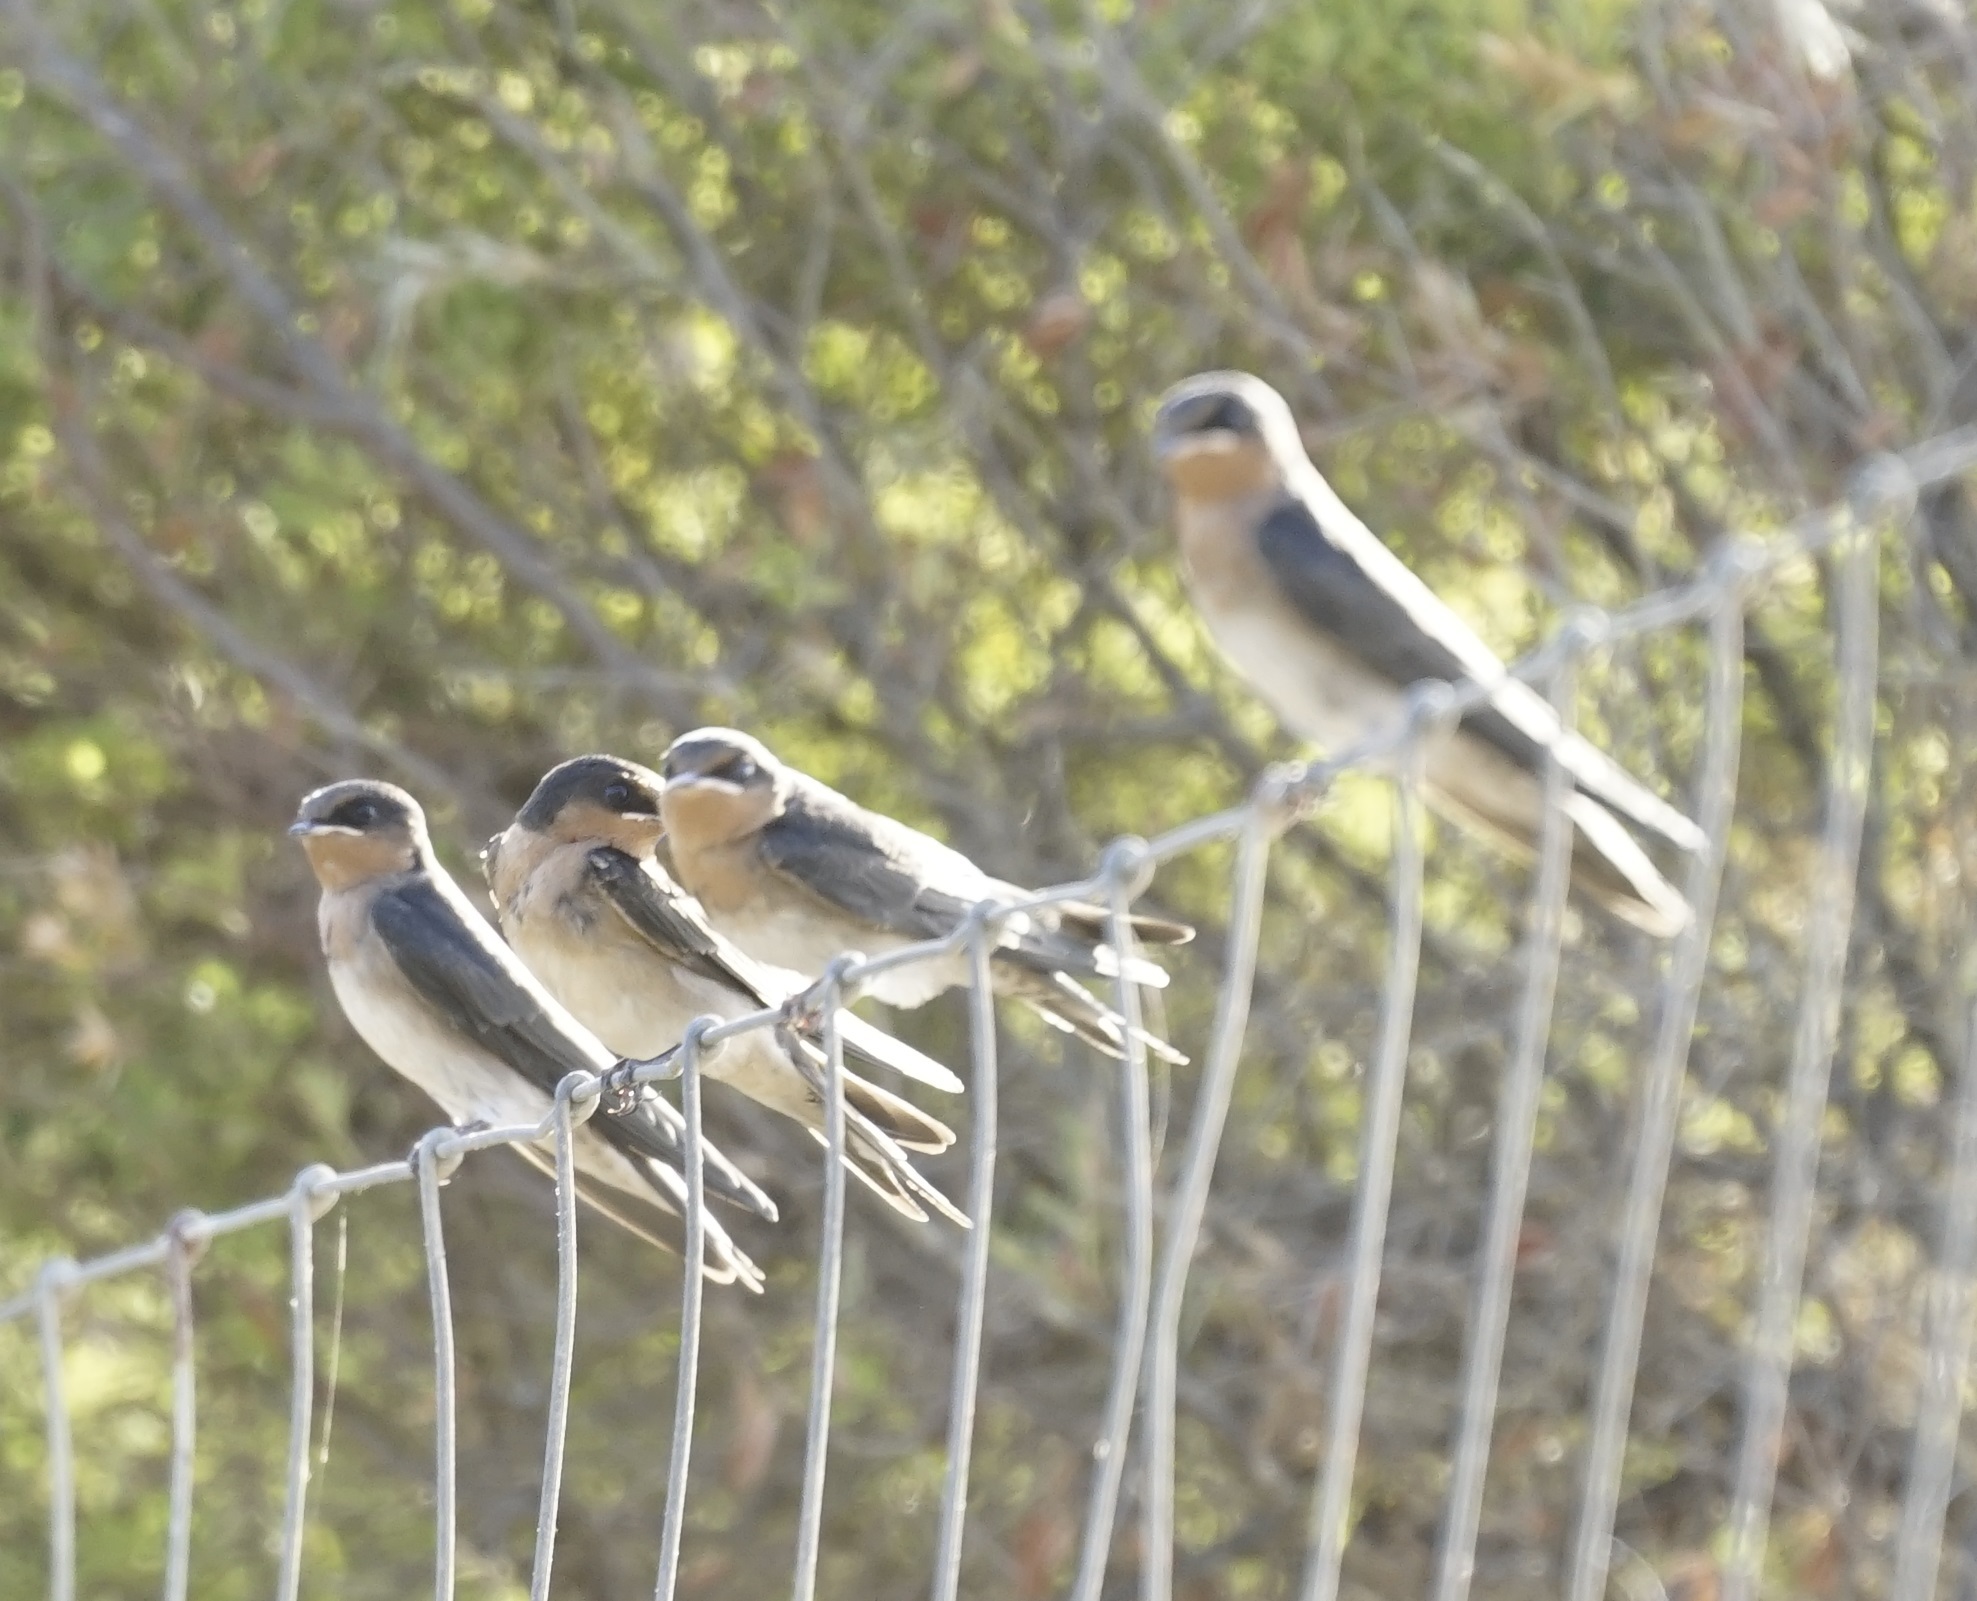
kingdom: Animalia
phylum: Chordata
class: Aves
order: Passeriformes
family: Hirundinidae
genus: Hirundo
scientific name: Hirundo neoxena
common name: Welcome swallow
